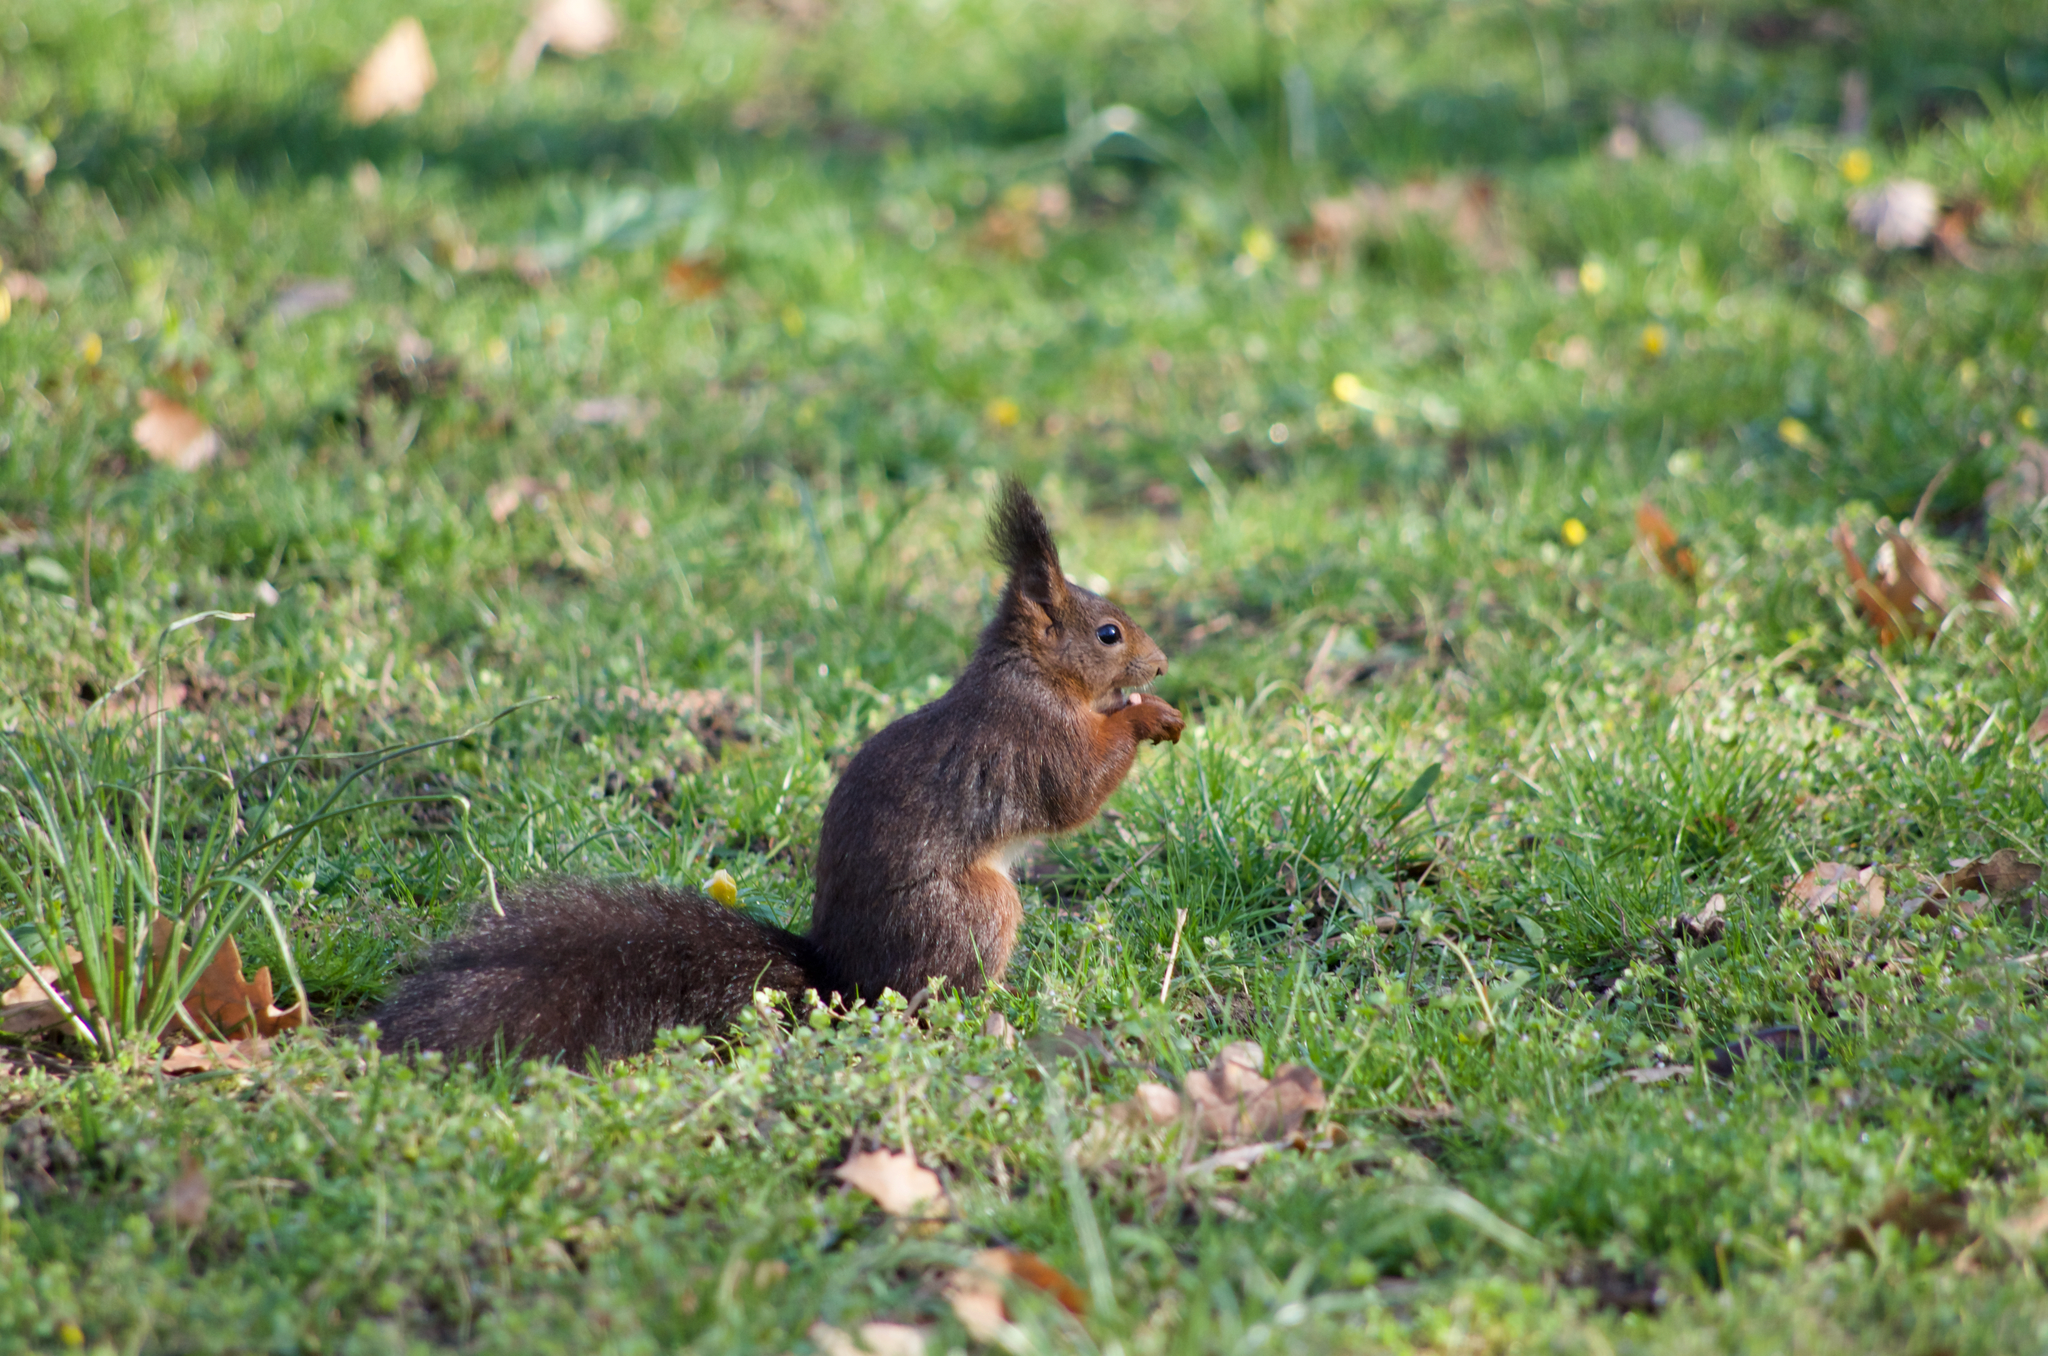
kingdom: Animalia
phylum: Chordata
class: Mammalia
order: Rodentia
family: Sciuridae
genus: Sciurus
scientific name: Sciurus vulgaris
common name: Eurasian red squirrel
